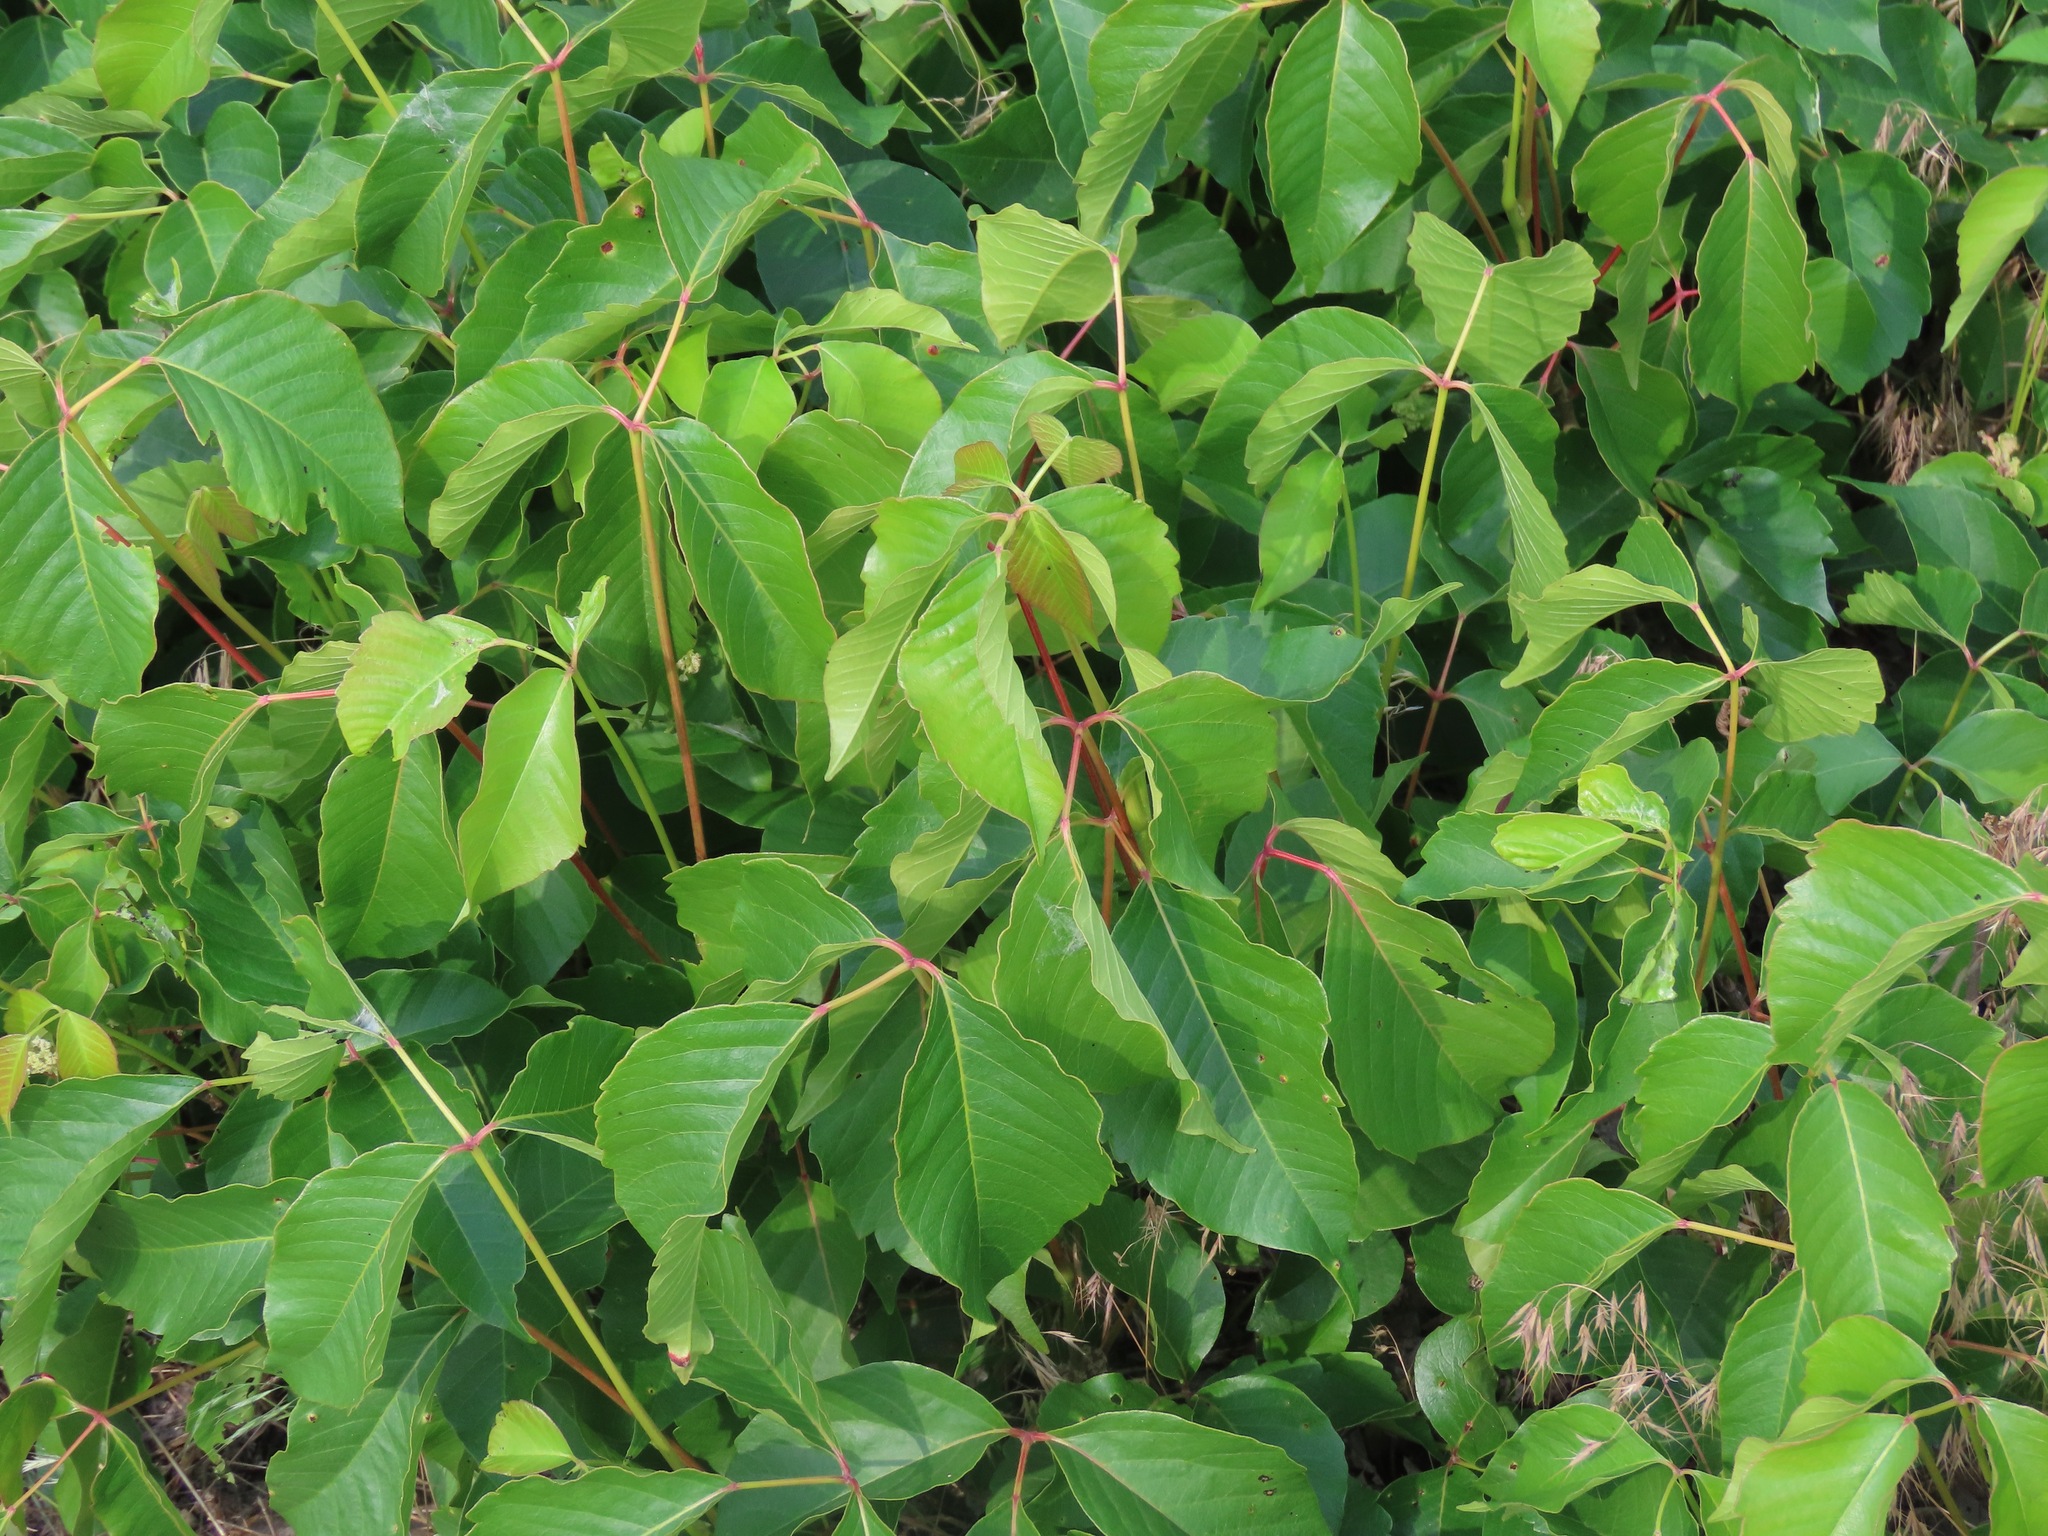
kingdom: Plantae
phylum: Tracheophyta
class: Magnoliopsida
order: Sapindales
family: Anacardiaceae
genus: Toxicodendron
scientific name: Toxicodendron rydbergii
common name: Rydberg's poison-ivy
